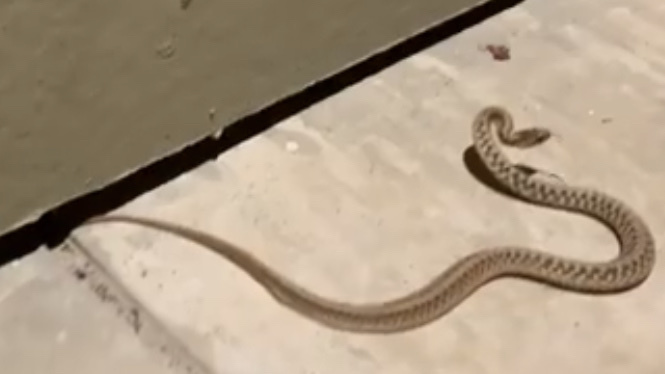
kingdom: Animalia
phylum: Chordata
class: Squamata
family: Colubridae
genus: Storeria
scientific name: Storeria dekayi
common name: (dekay’s) brown snake
